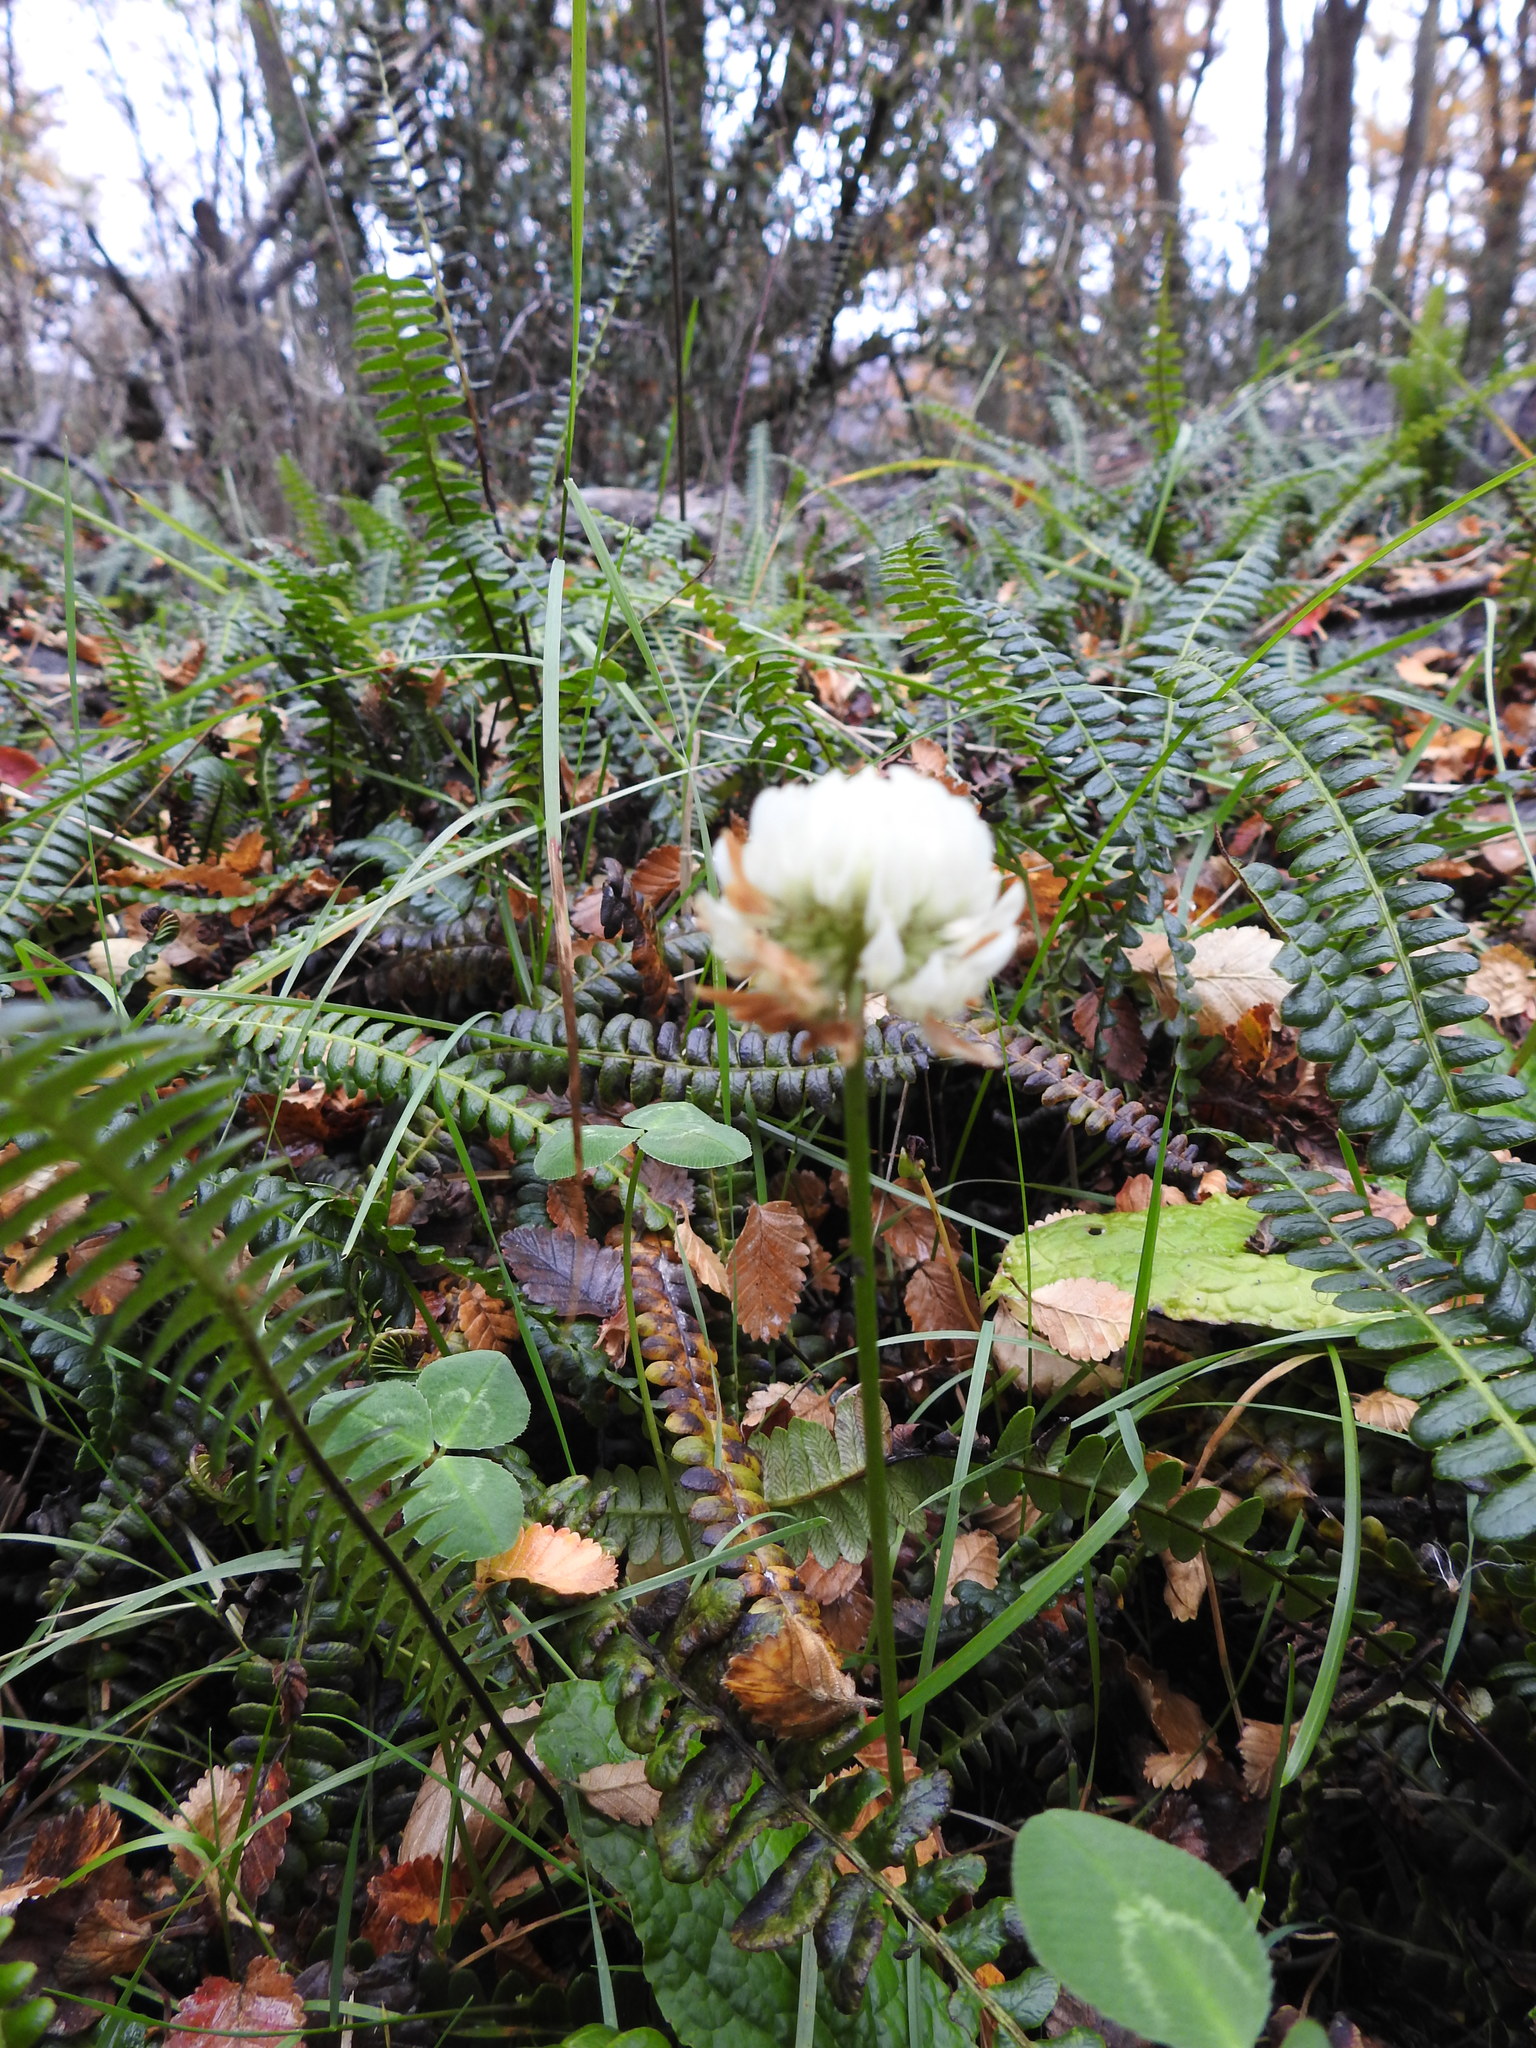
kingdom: Plantae
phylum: Tracheophyta
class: Magnoliopsida
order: Fabales
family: Fabaceae
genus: Trifolium
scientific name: Trifolium repens
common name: White clover
